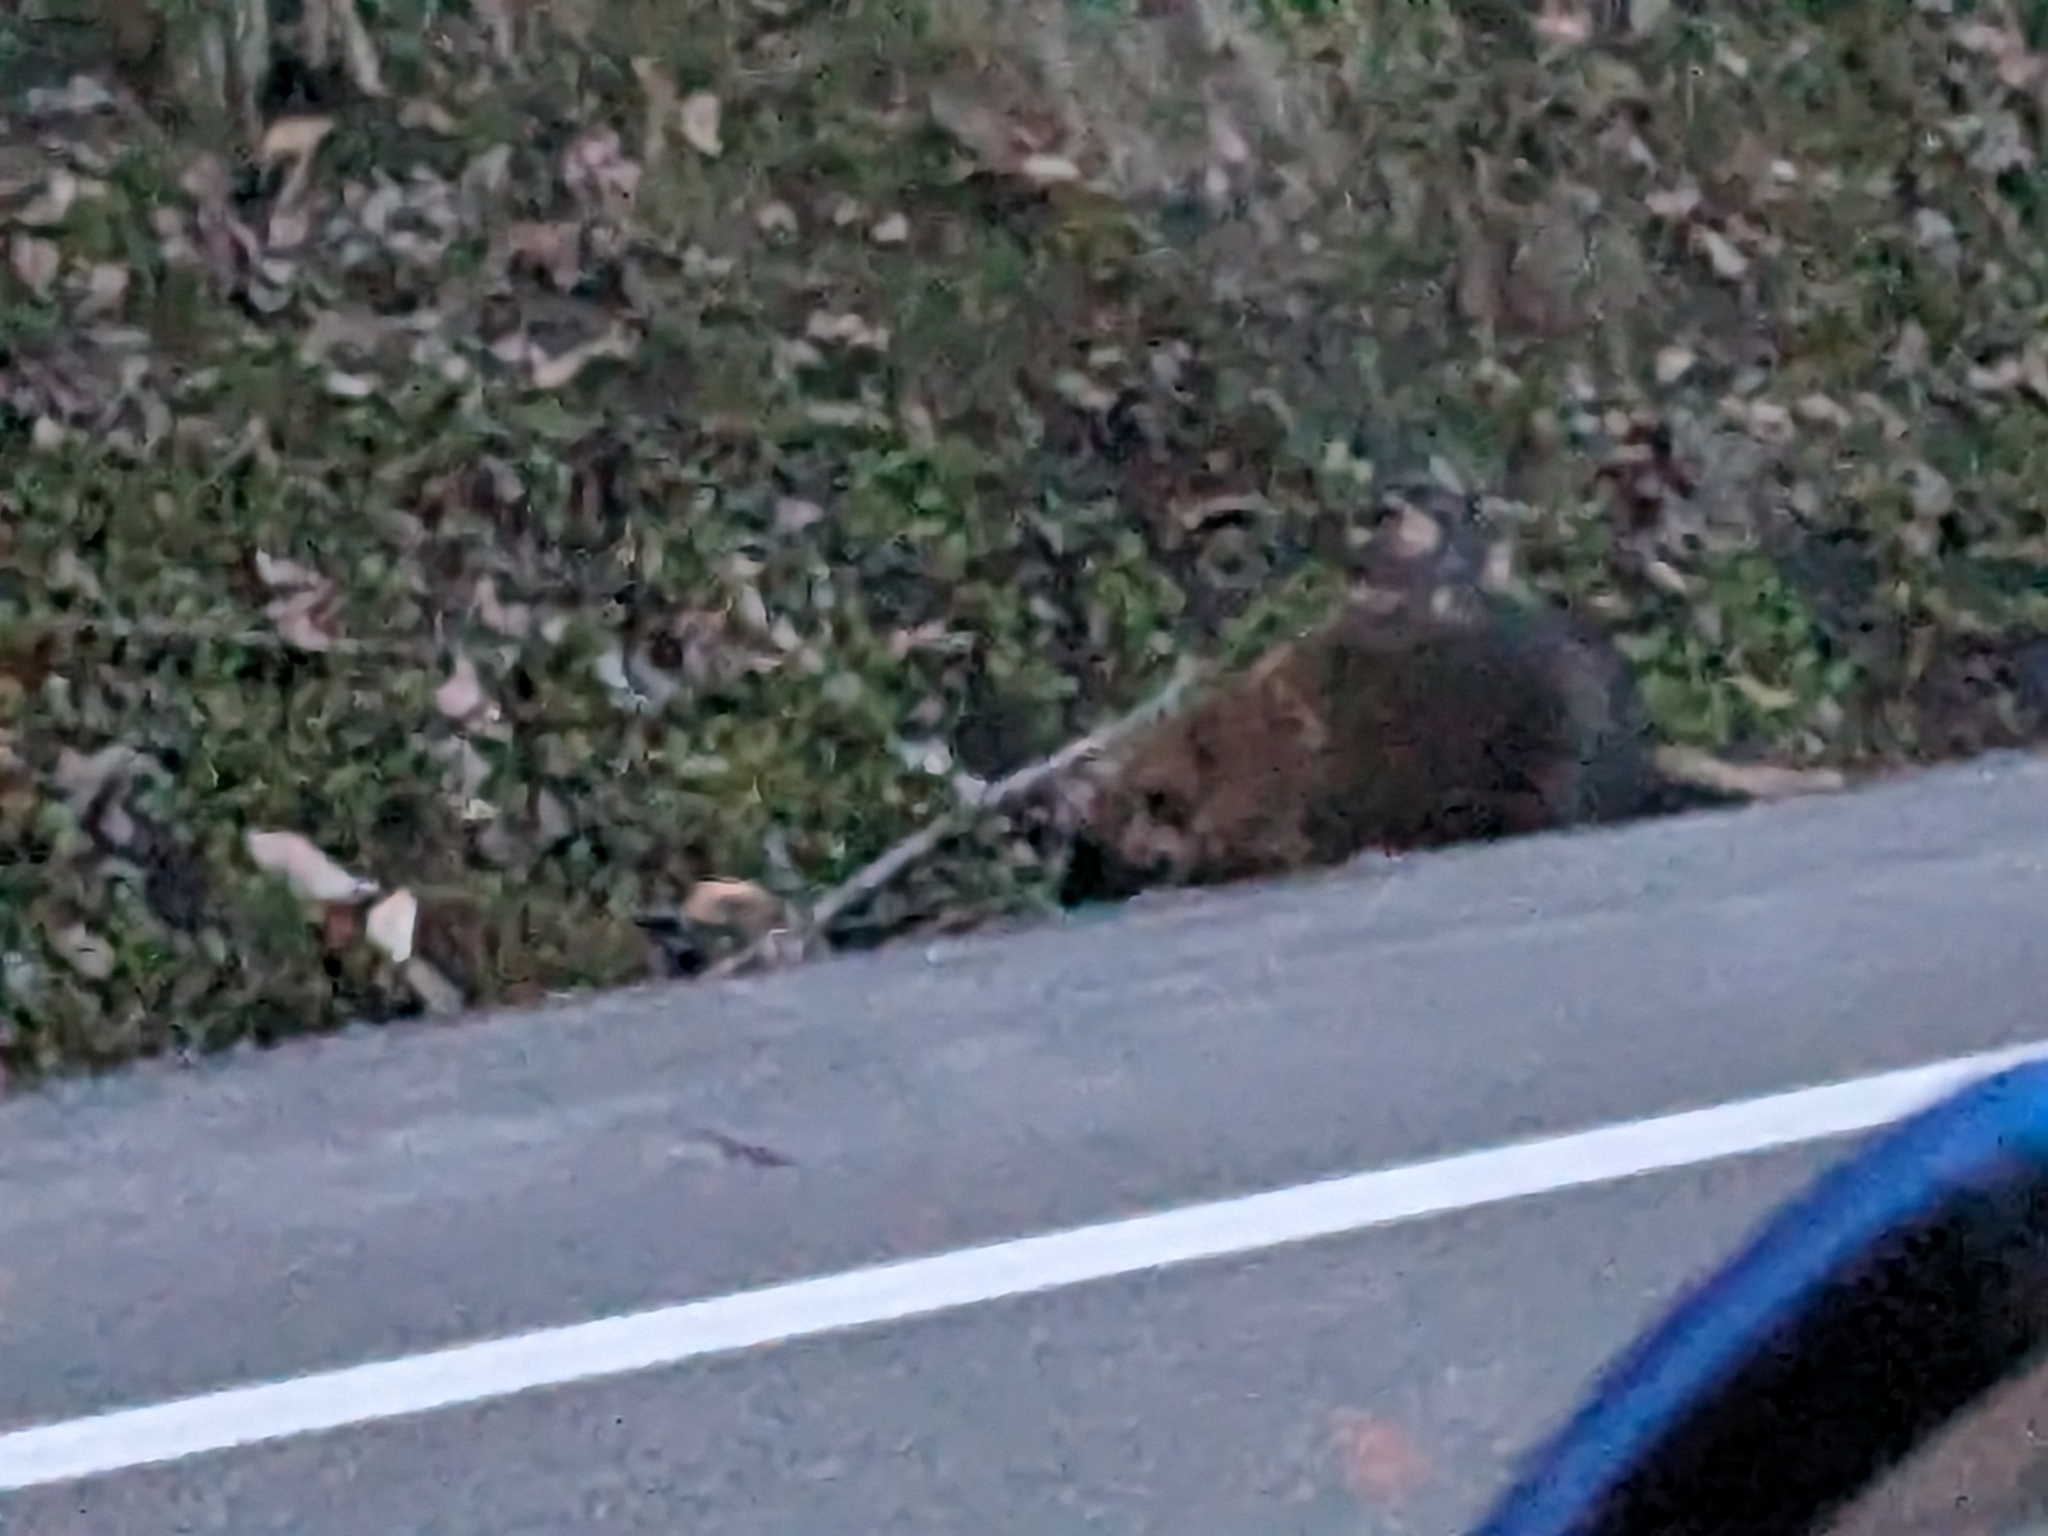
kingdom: Animalia
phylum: Chordata
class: Mammalia
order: Rodentia
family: Erethizontidae
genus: Erethizon
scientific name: Erethizon dorsatus
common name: North american porcupine
